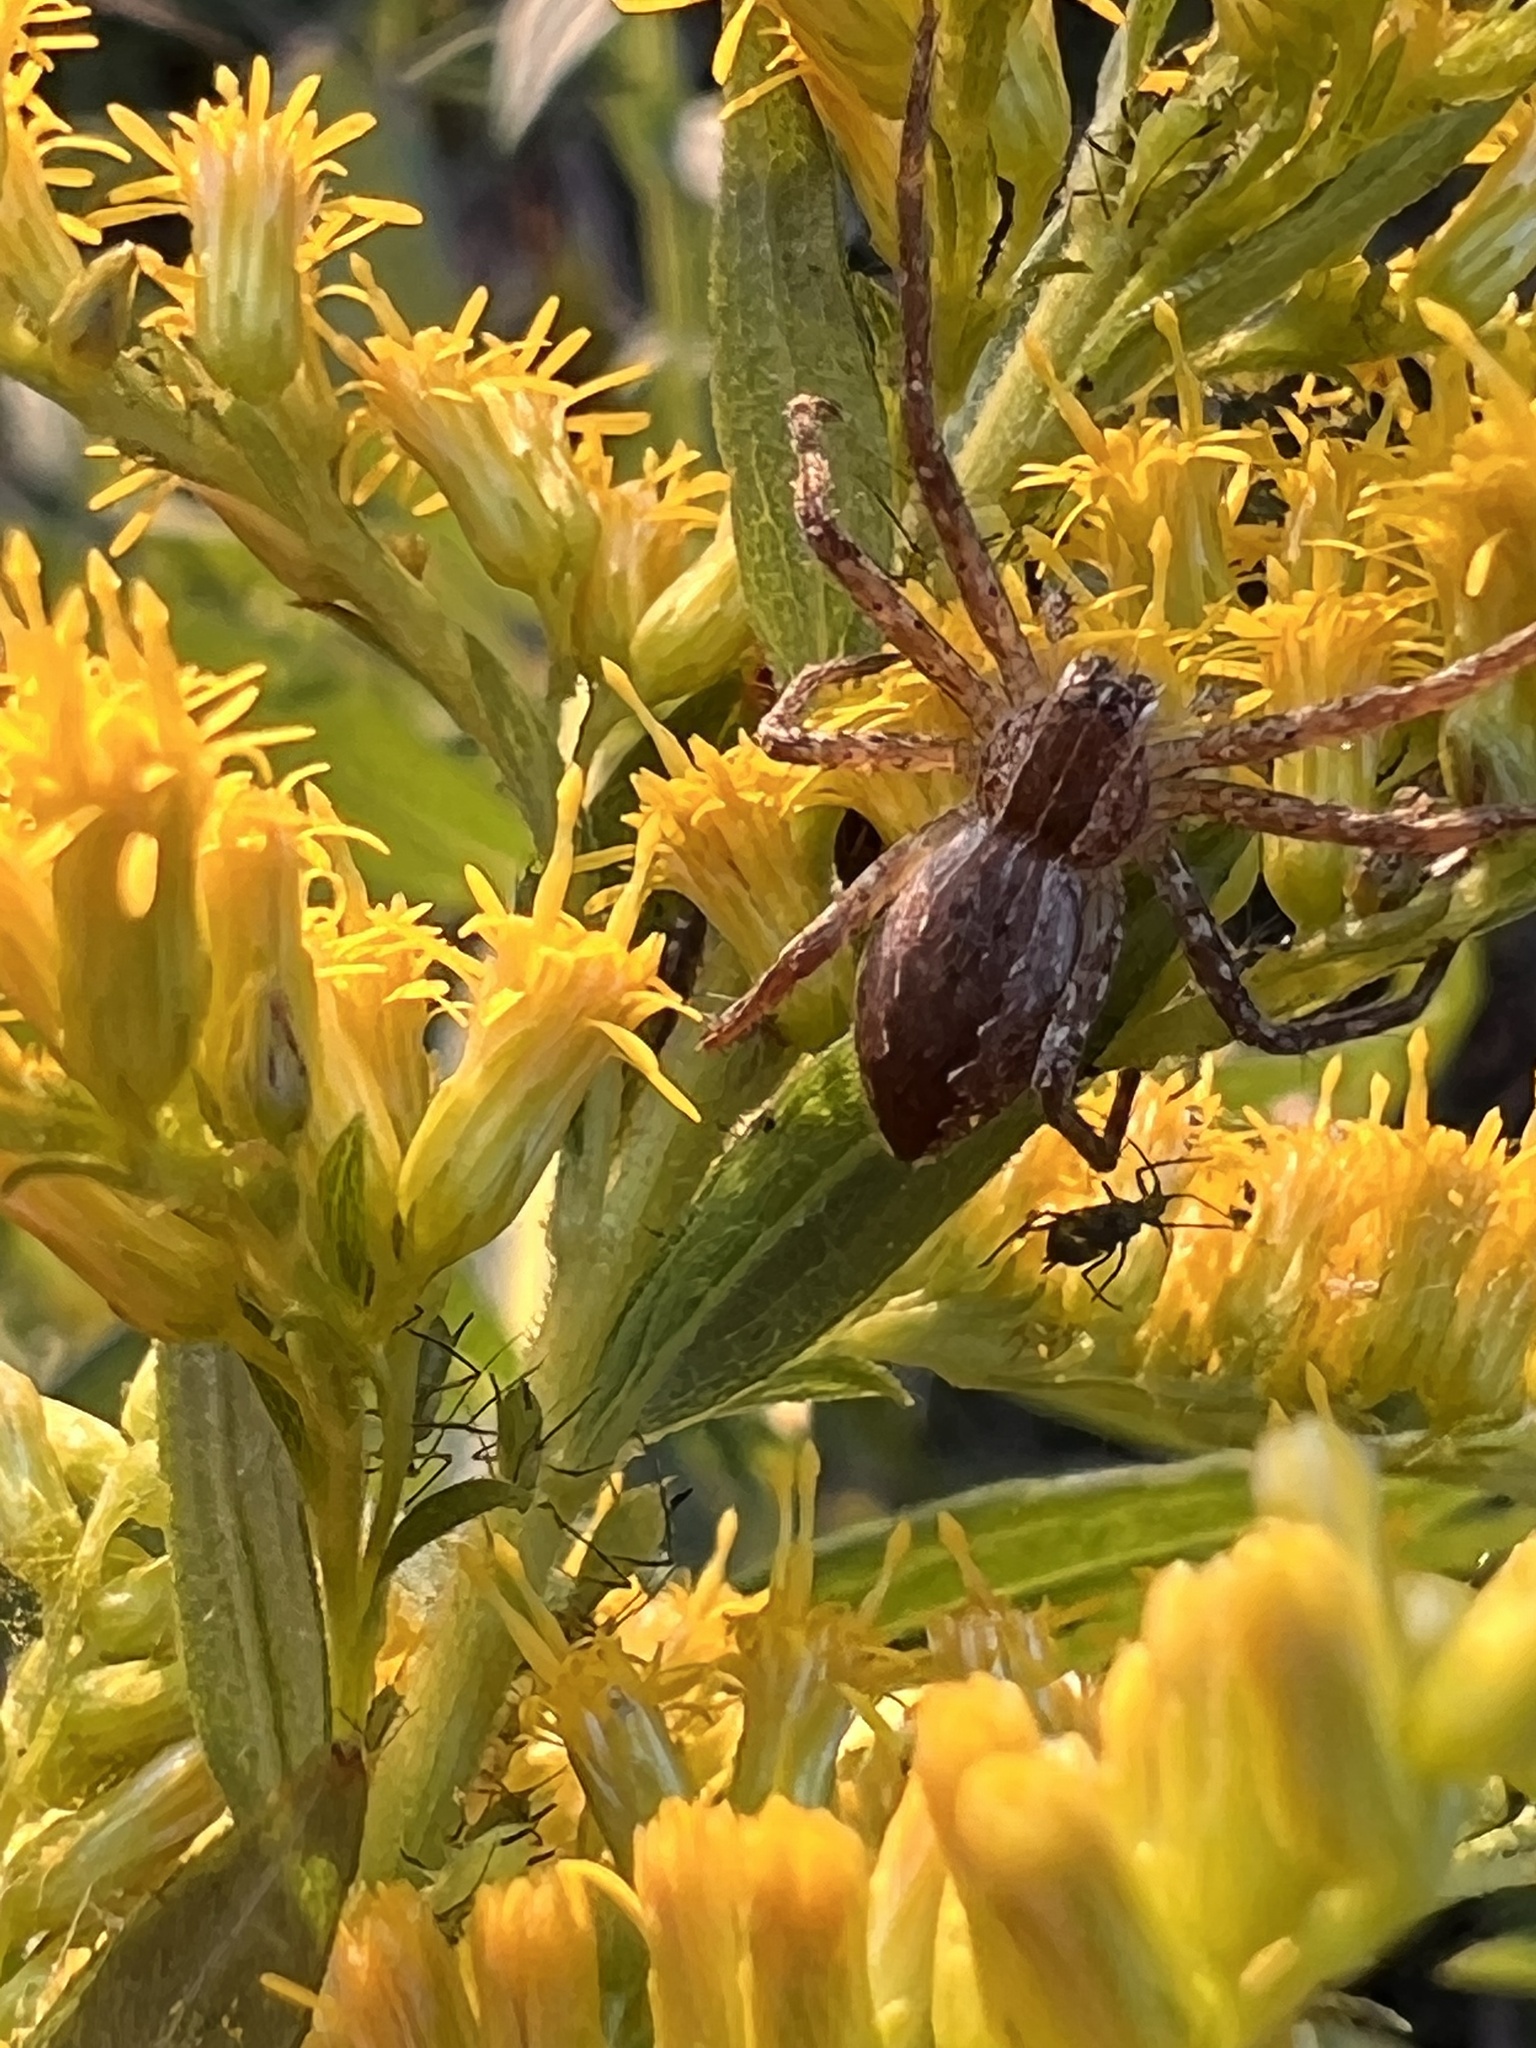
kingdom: Animalia
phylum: Arthropoda
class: Arachnida
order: Araneae
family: Pisauridae
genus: Pisaurina
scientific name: Pisaurina mira
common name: American nursery web spider
